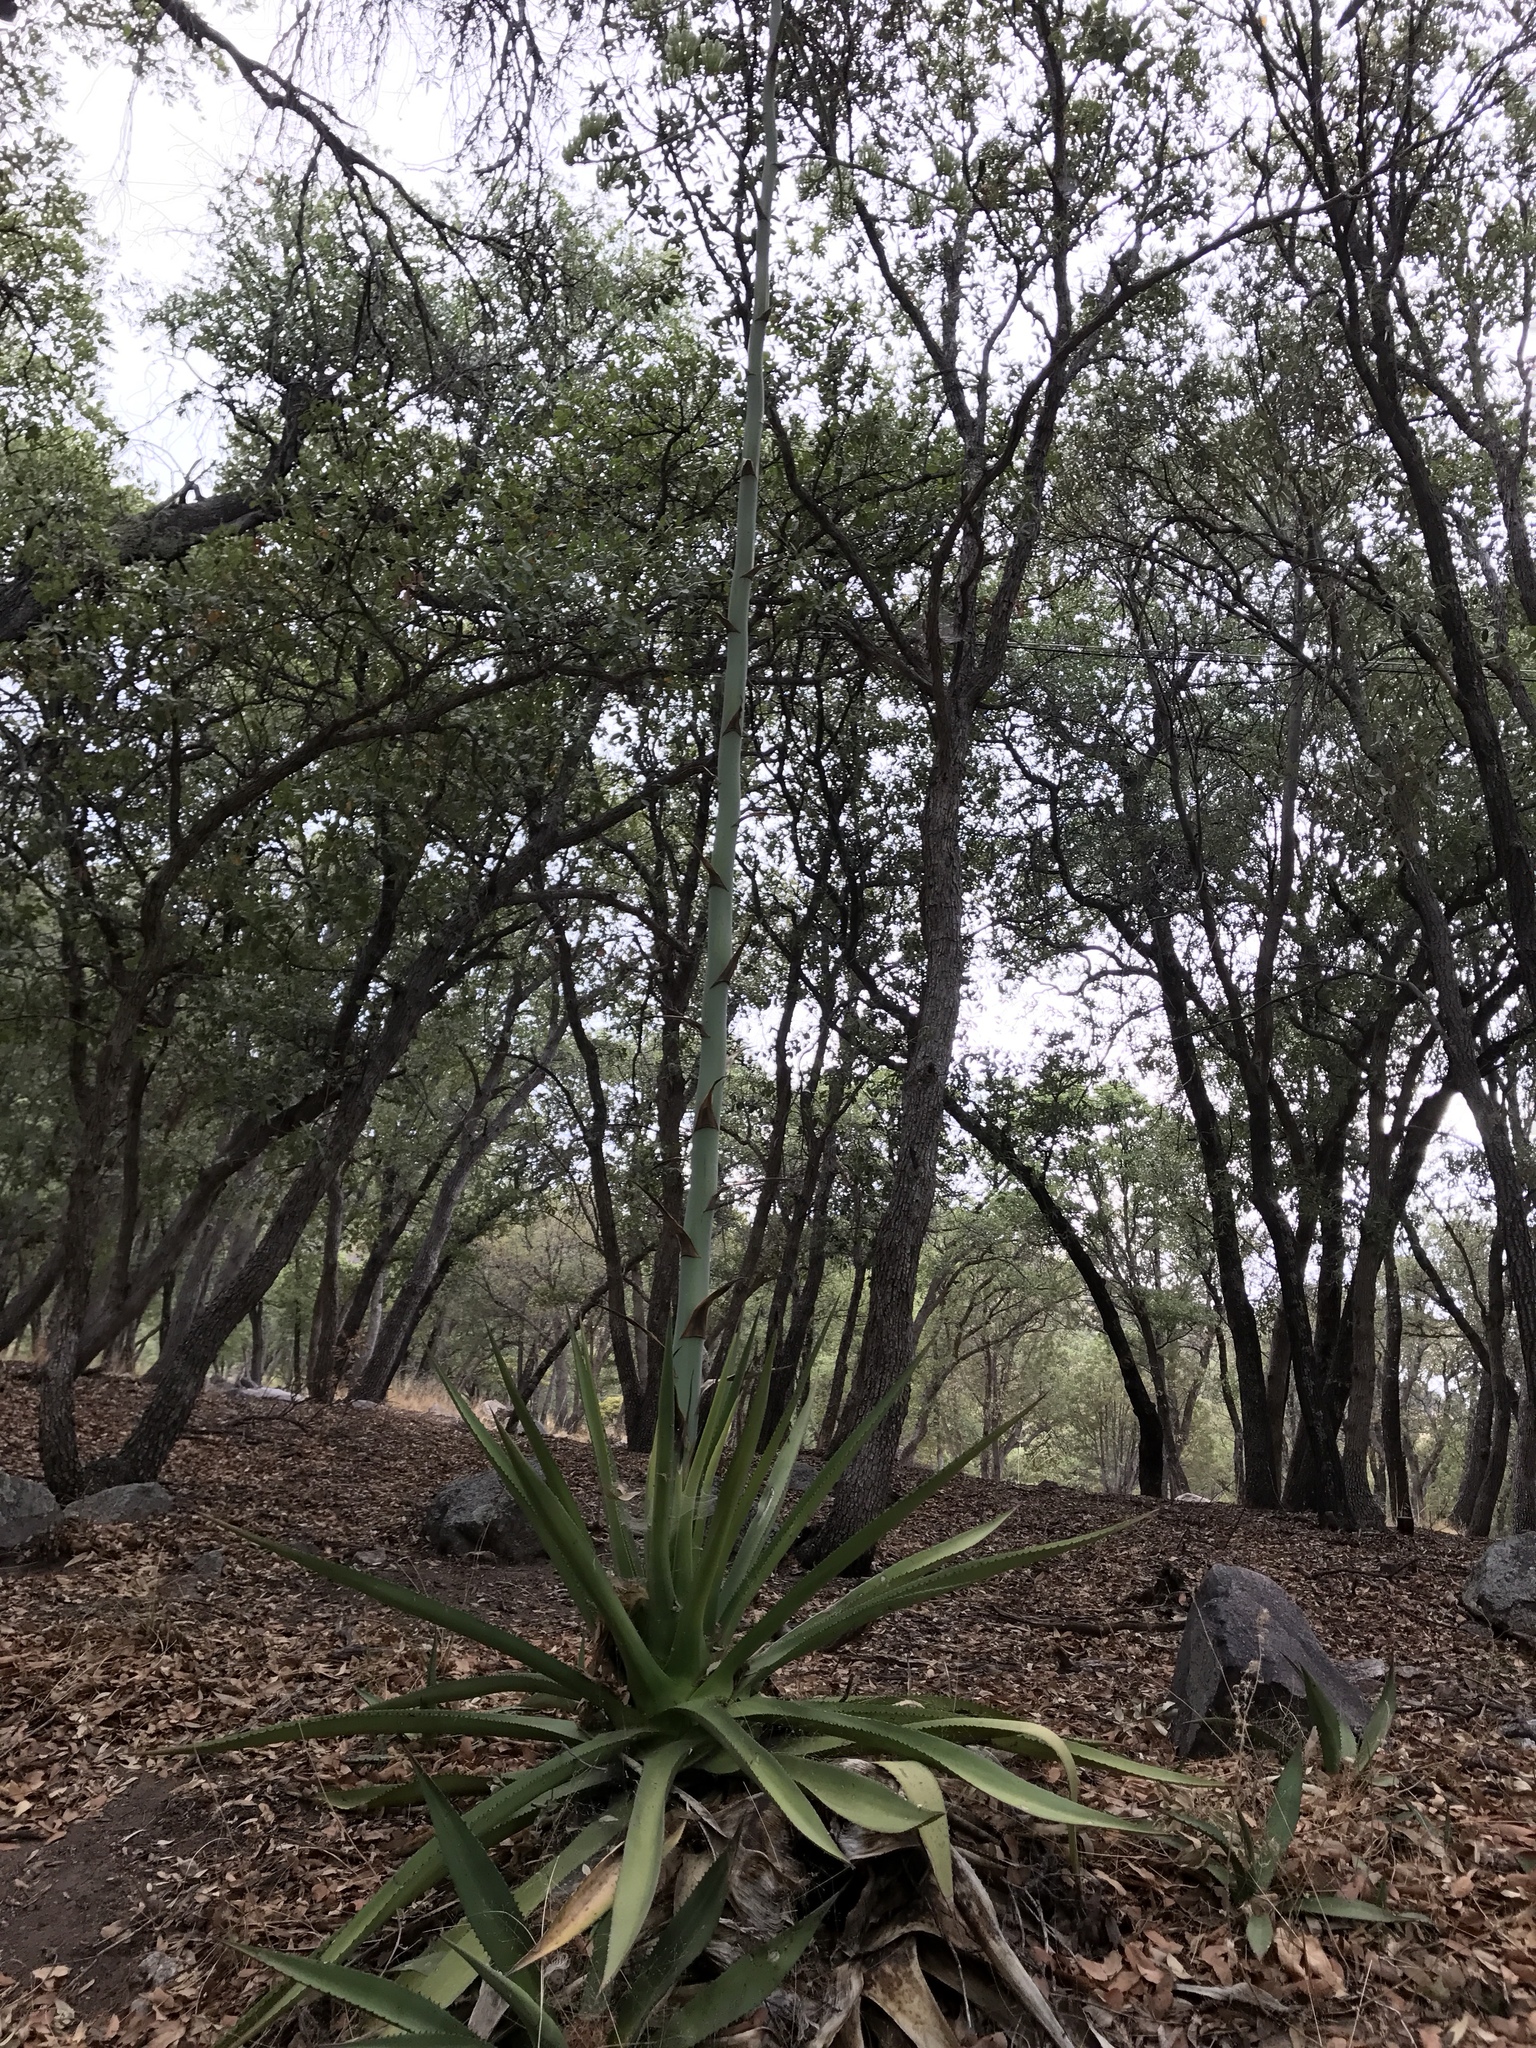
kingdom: Plantae
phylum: Tracheophyta
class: Liliopsida
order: Asparagales
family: Asparagaceae
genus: Agave
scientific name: Agave palmeri
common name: Palmer agave
